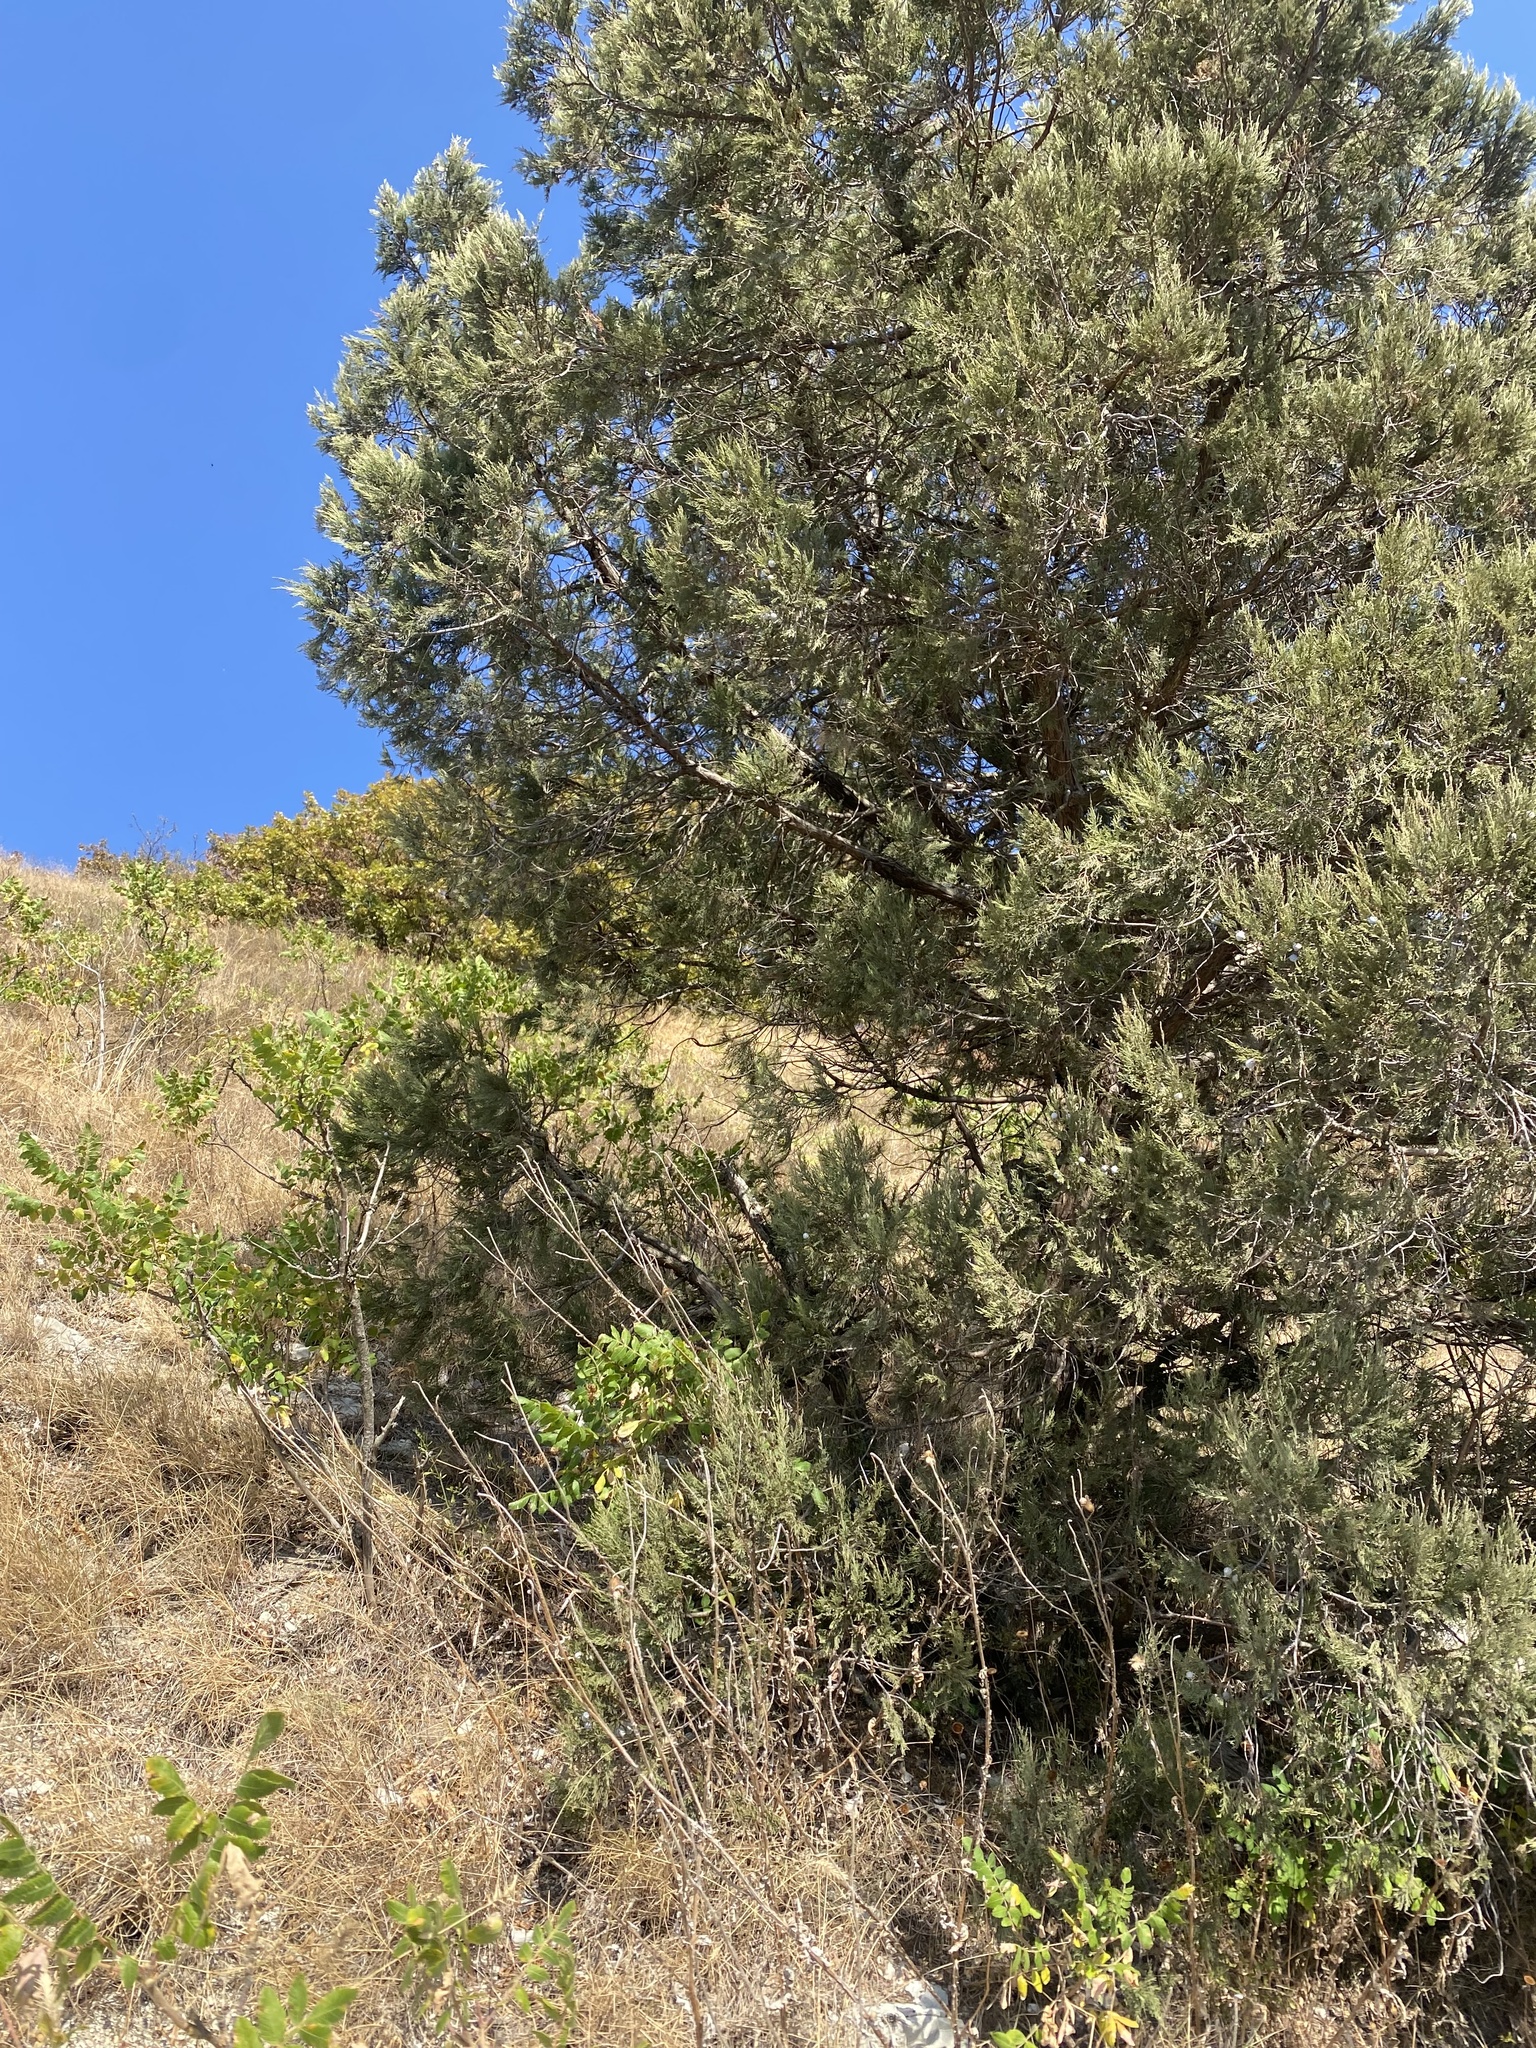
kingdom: Plantae
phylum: Tracheophyta
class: Pinopsida
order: Pinales
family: Cupressaceae
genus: Juniperus
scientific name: Juniperus excelsa
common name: Crimean juniper
